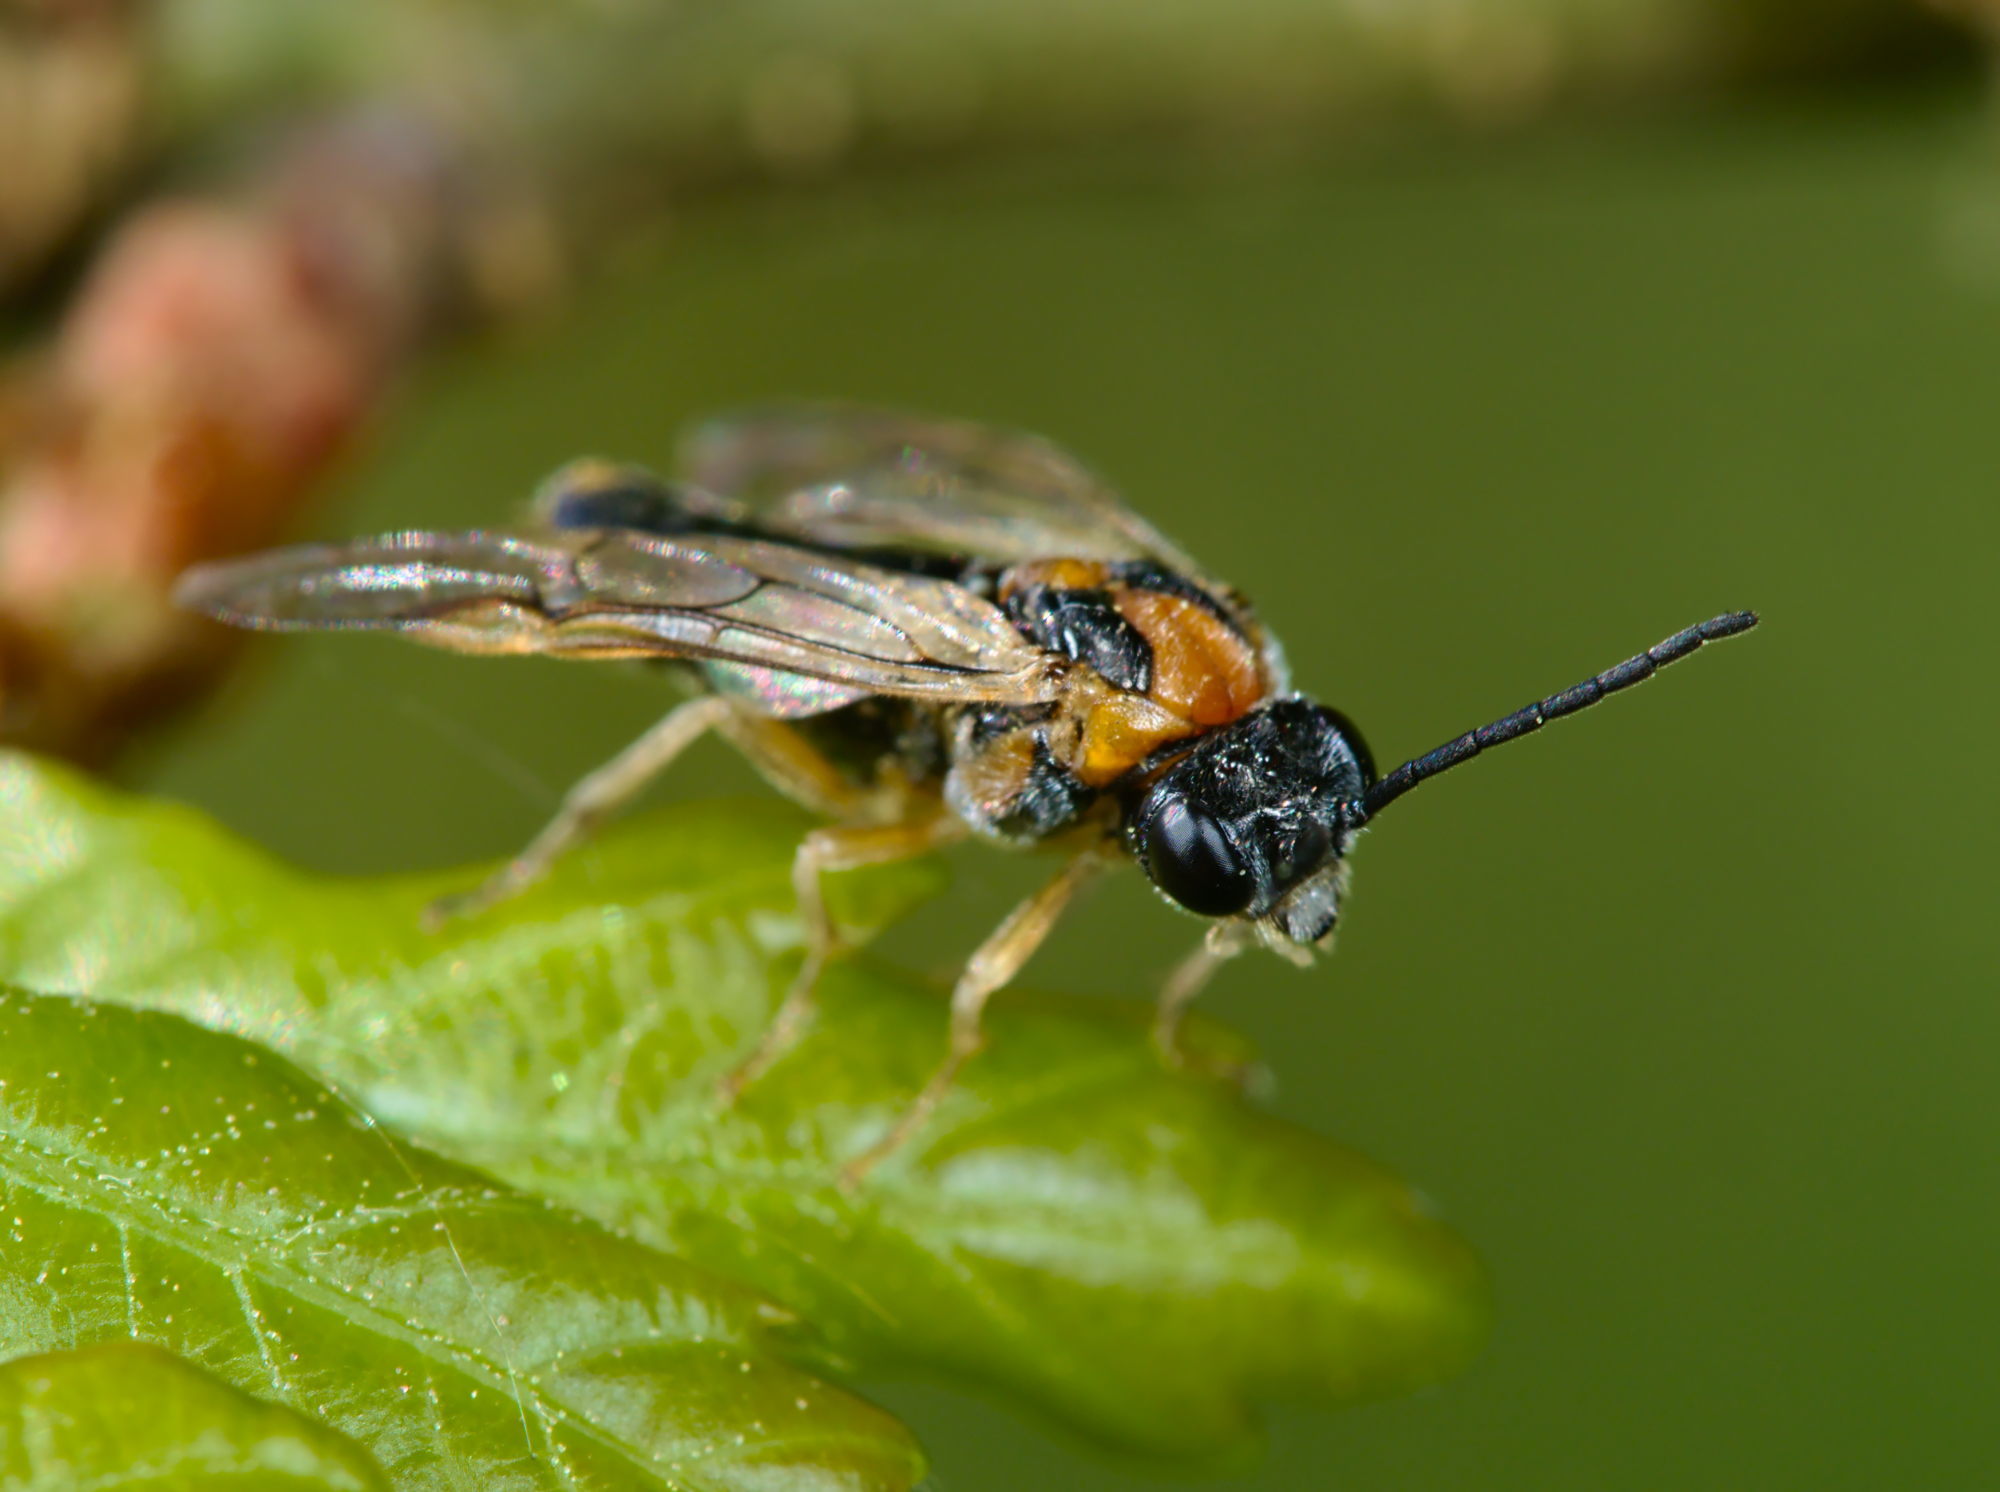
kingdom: Animalia
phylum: Arthropoda
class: Insecta
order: Hymenoptera
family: Tenthredinidae
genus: Mesoneura
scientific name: Mesoneura opaca
